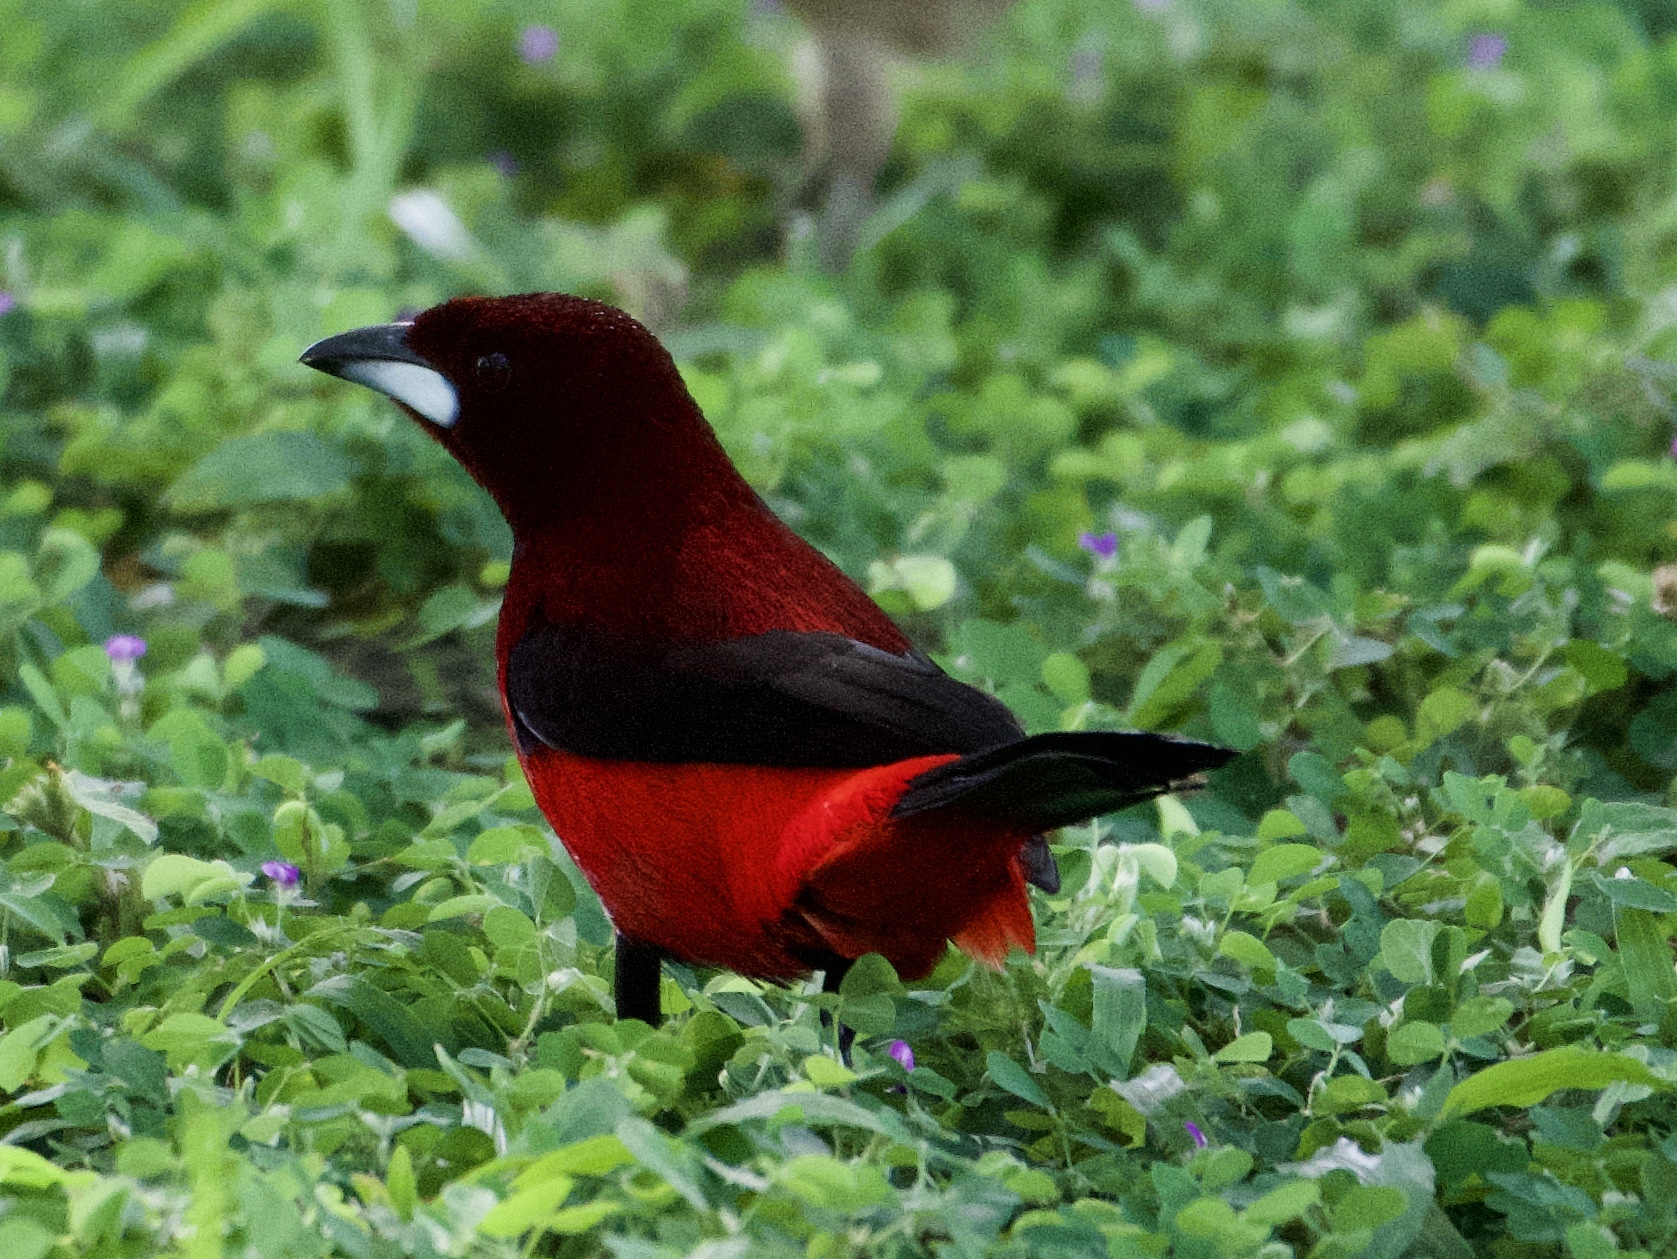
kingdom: Animalia
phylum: Chordata
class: Aves
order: Passeriformes
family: Thraupidae
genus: Ramphocelus
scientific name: Ramphocelus dimidiatus
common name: Crimson-backed tanager
